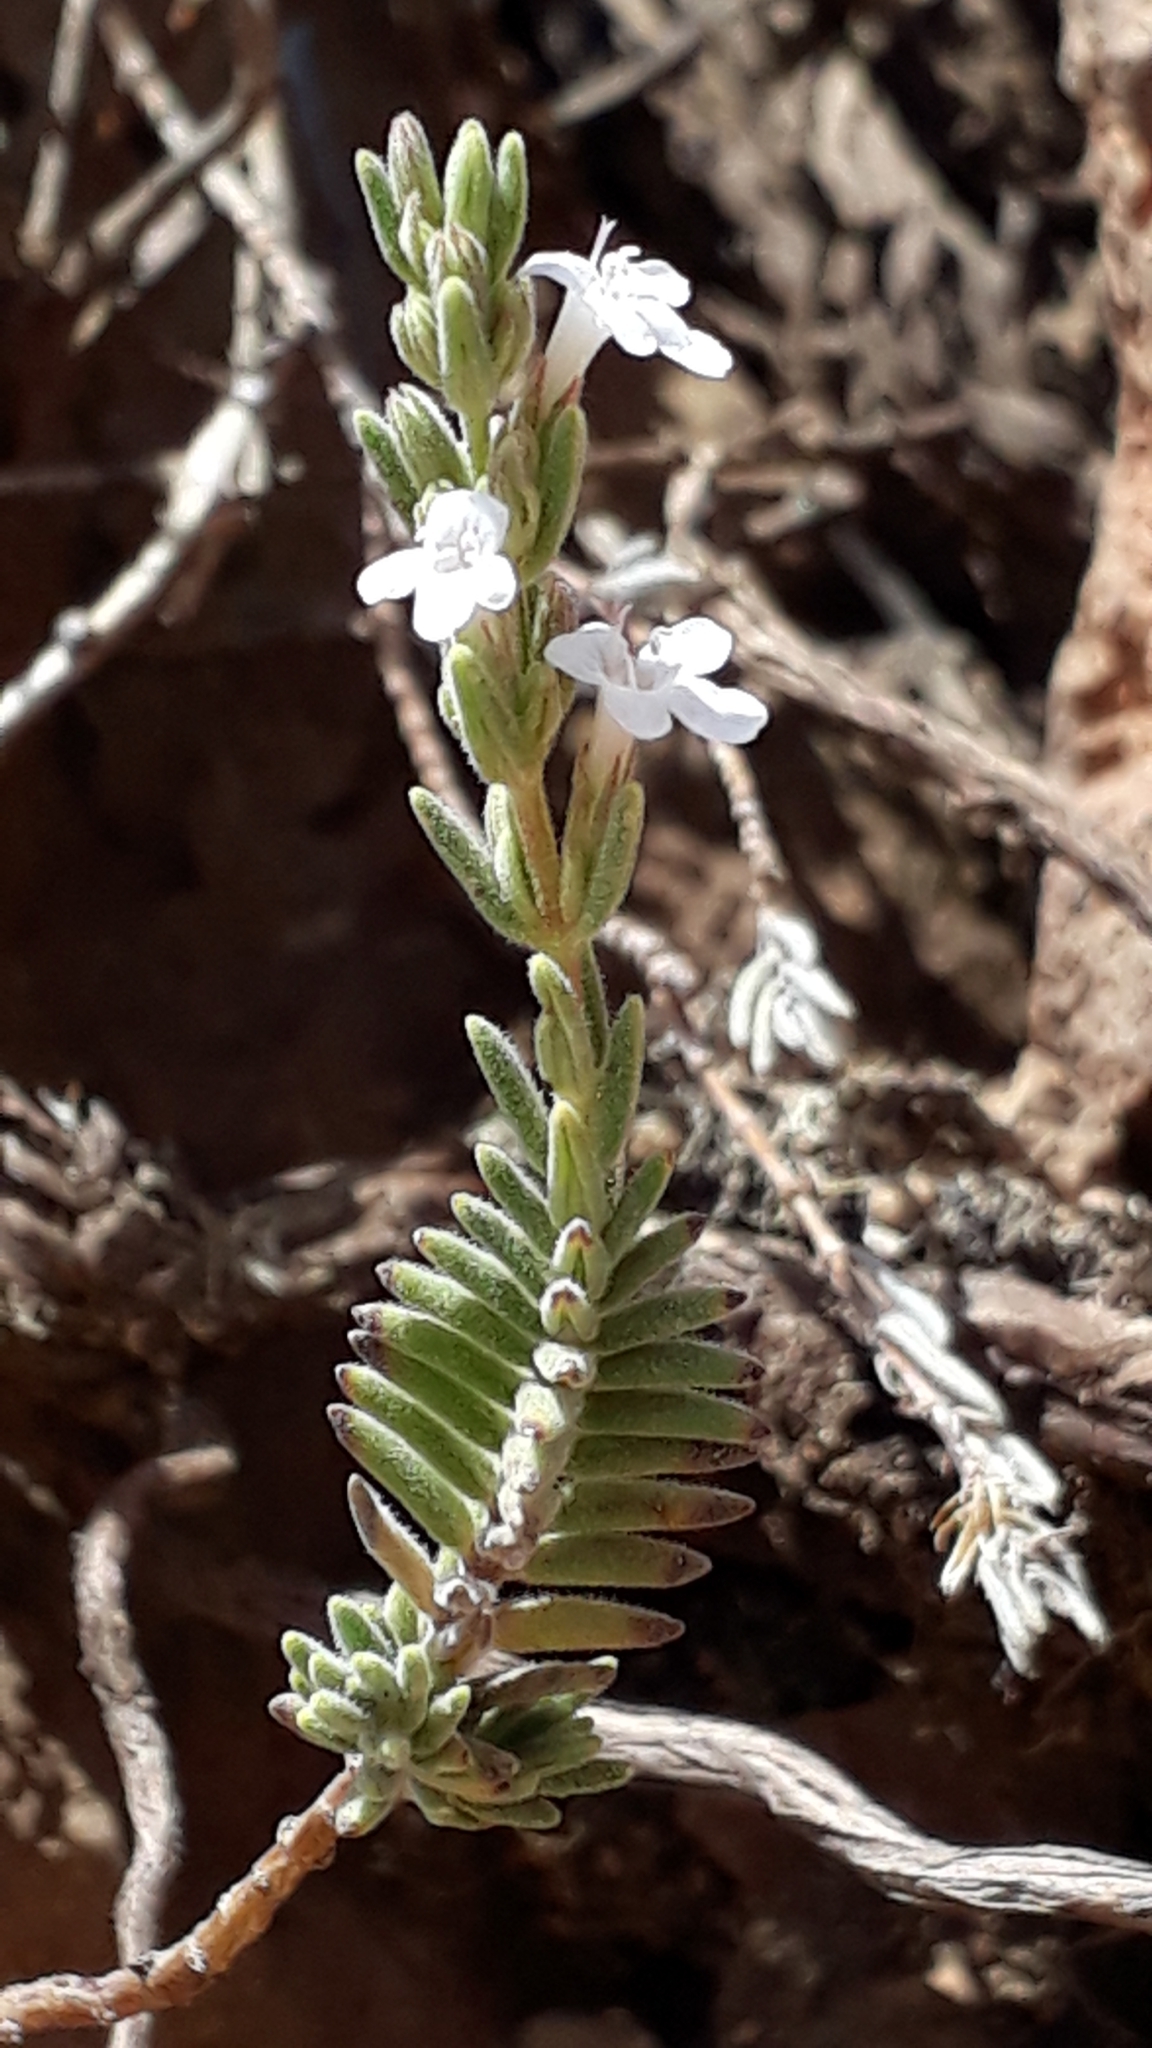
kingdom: Plantae
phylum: Tracheophyta
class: Magnoliopsida
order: Lamiales
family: Lamiaceae
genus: Micromeria
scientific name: Micromeria lachnophylla
